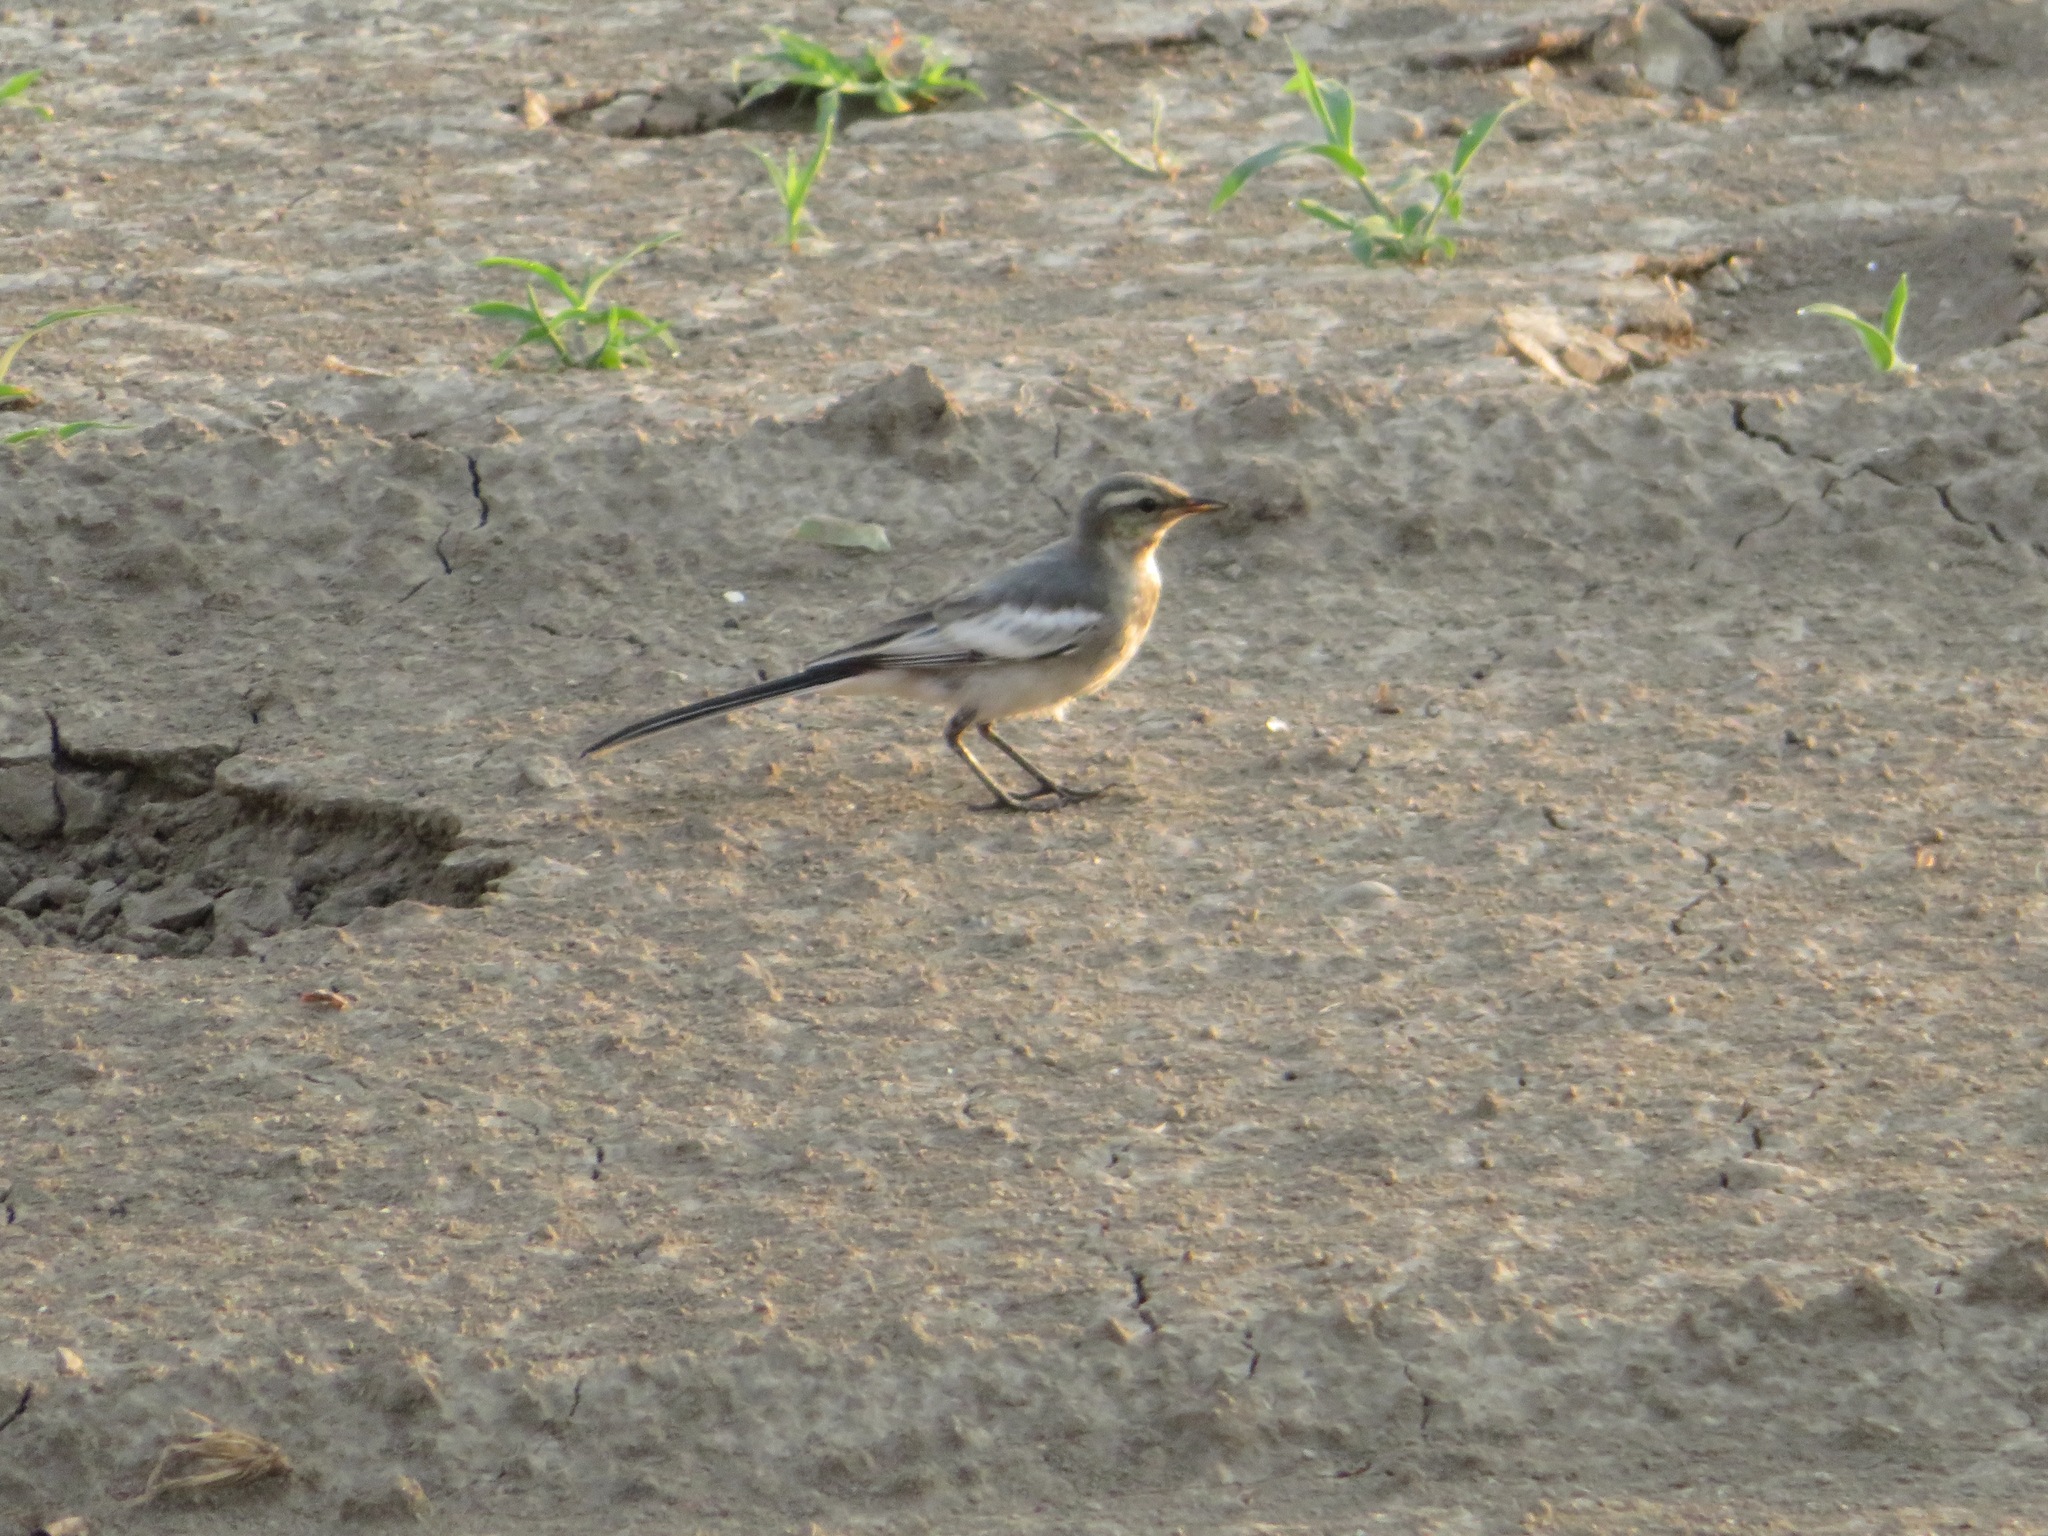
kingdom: Animalia
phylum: Chordata
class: Aves
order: Passeriformes
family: Motacillidae
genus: Motacilla
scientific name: Motacilla alba
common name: White wagtail
